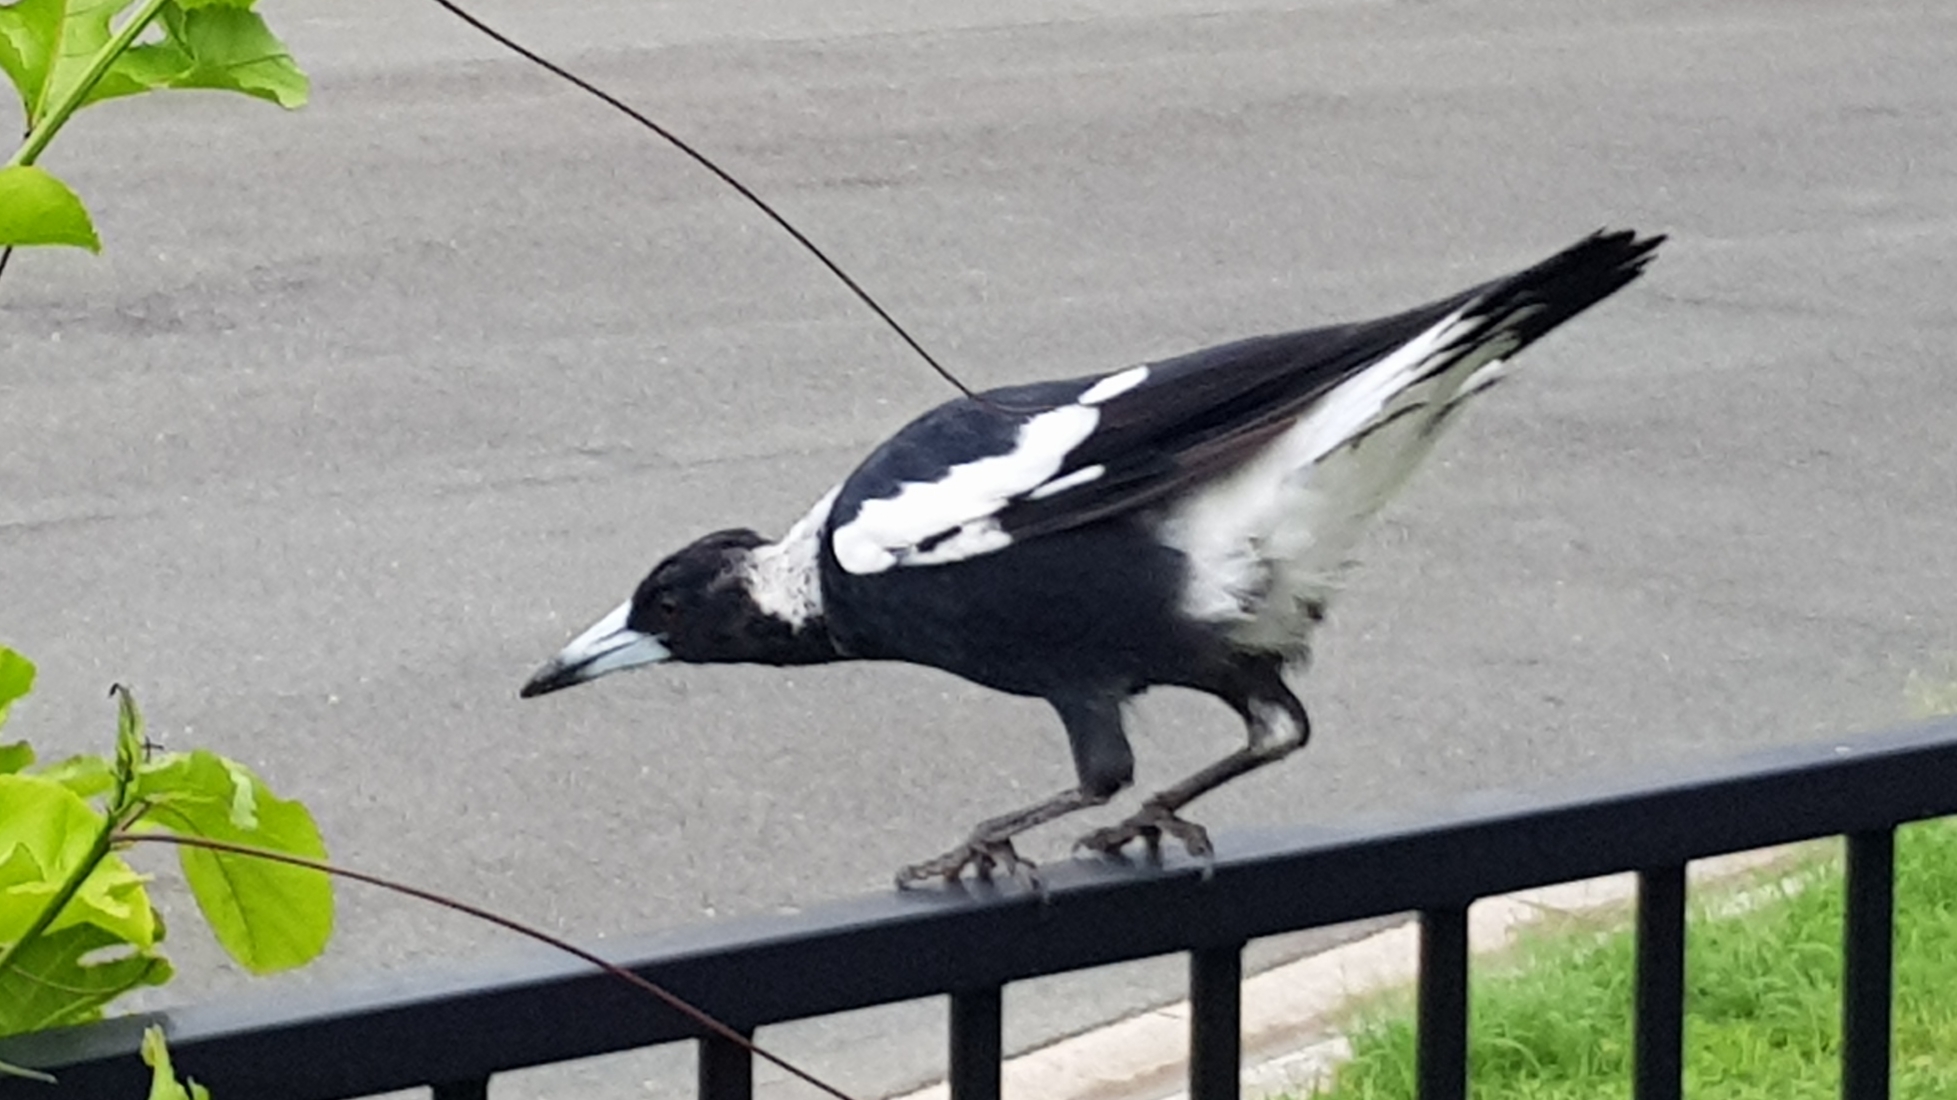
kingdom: Animalia
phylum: Chordata
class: Aves
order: Passeriformes
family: Cracticidae
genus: Gymnorhina
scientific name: Gymnorhina tibicen
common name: Australian magpie
